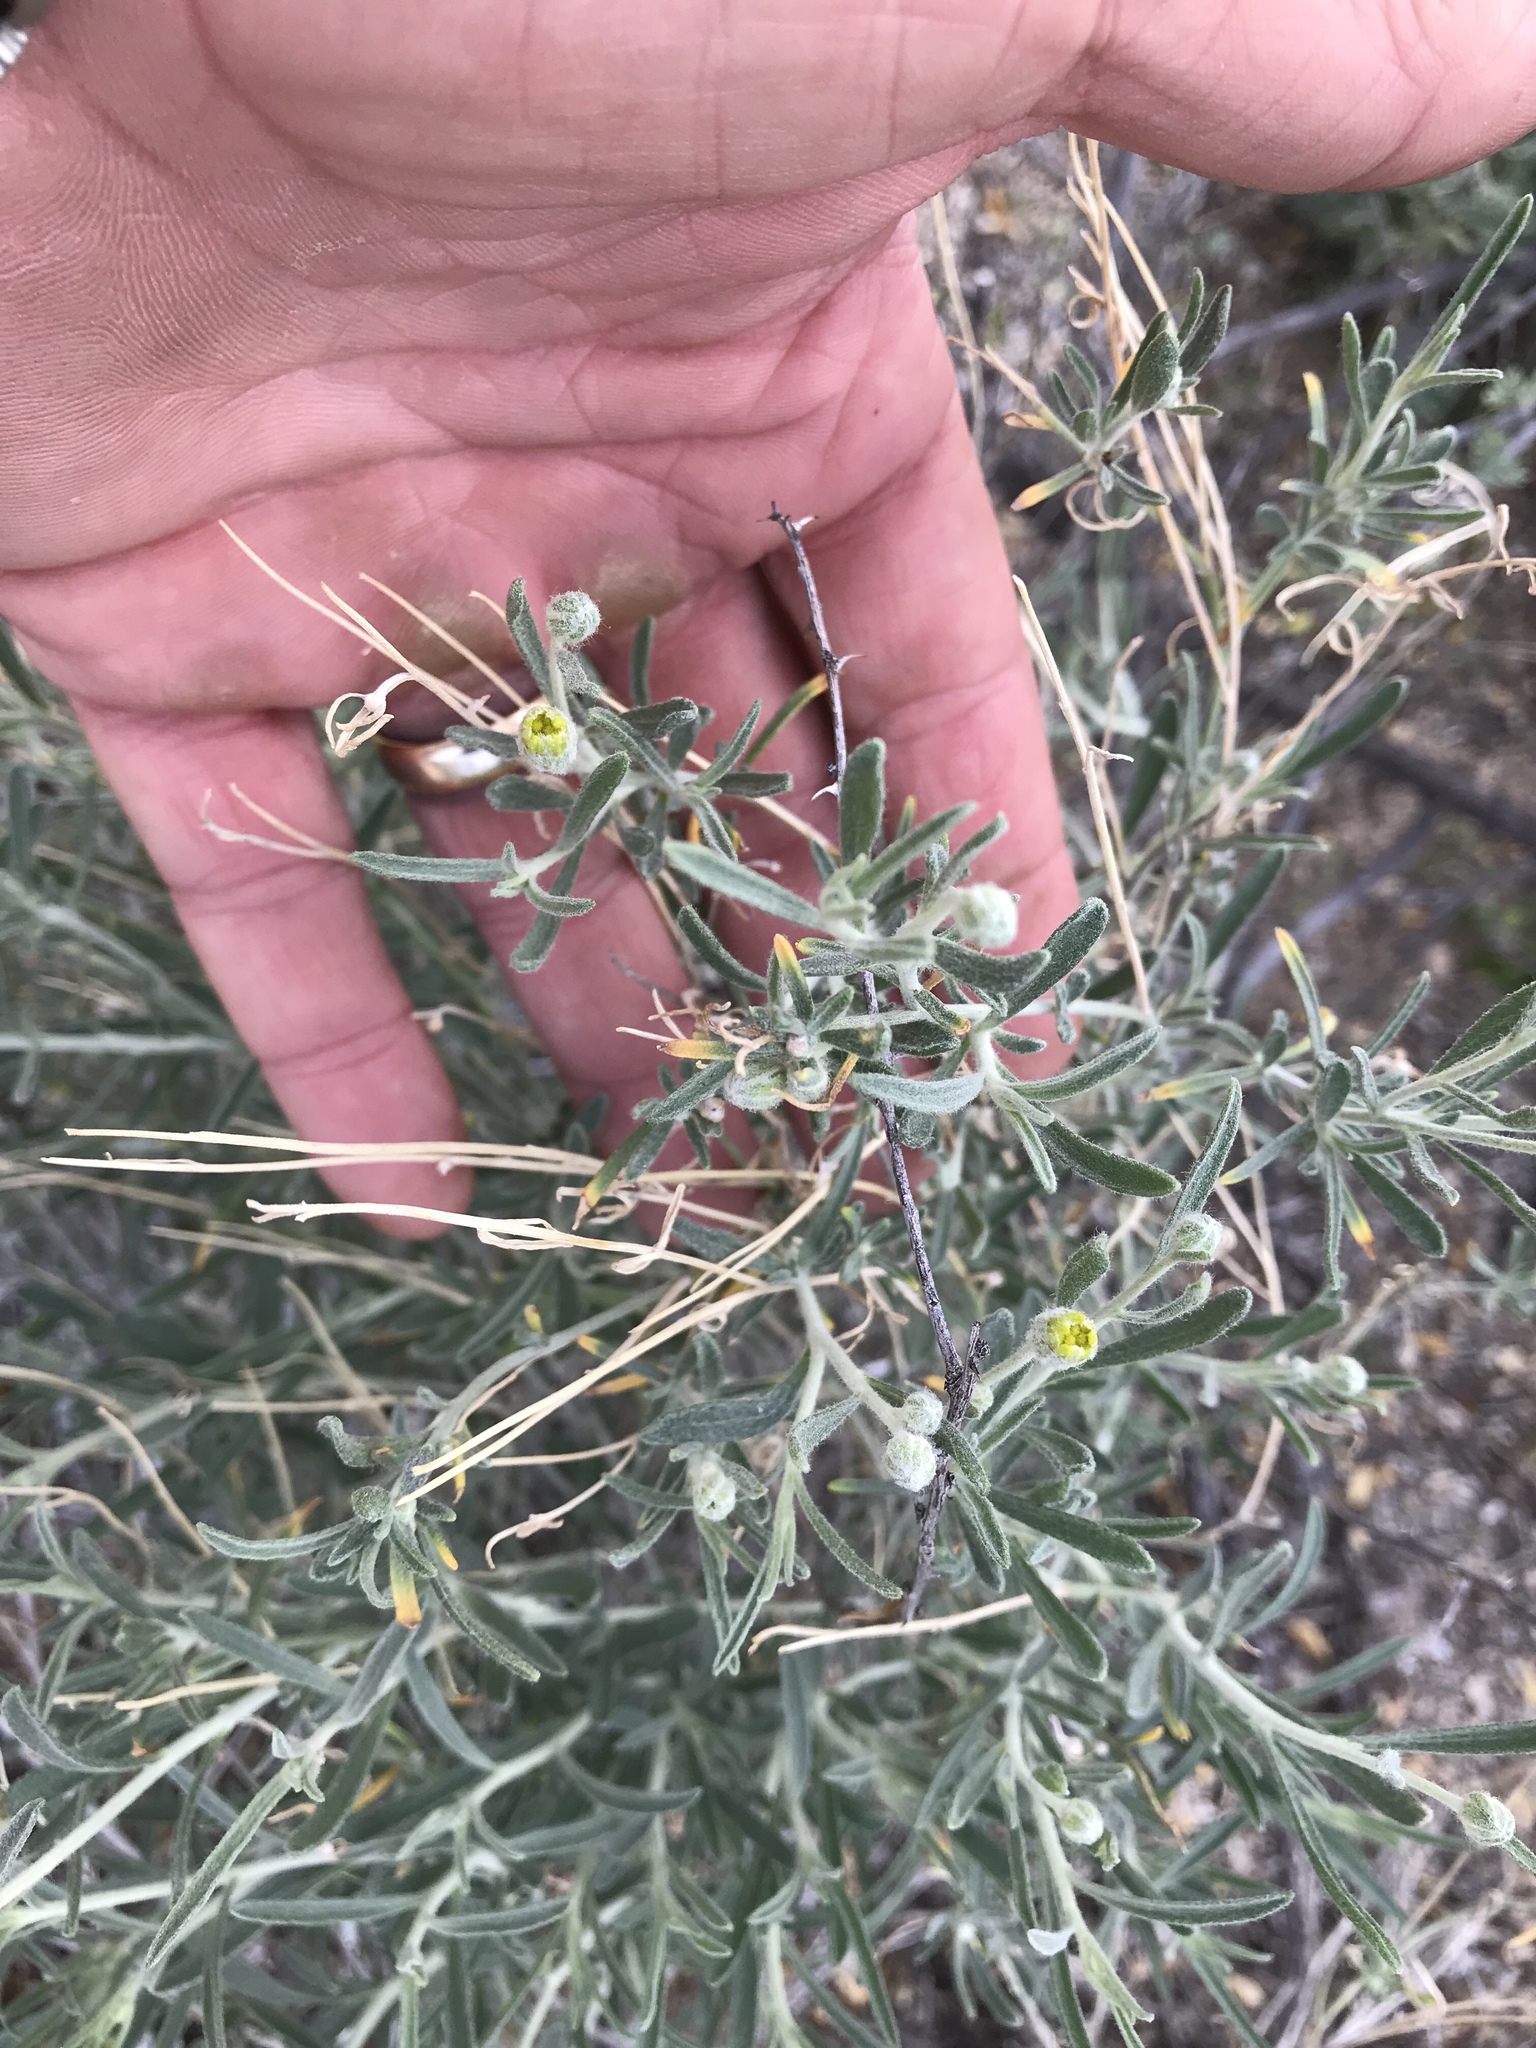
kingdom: Plantae
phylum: Tracheophyta
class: Magnoliopsida
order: Asterales
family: Asteraceae
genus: Psilostrophe
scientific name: Psilostrophe cooperi
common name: White-stem paper-flower
